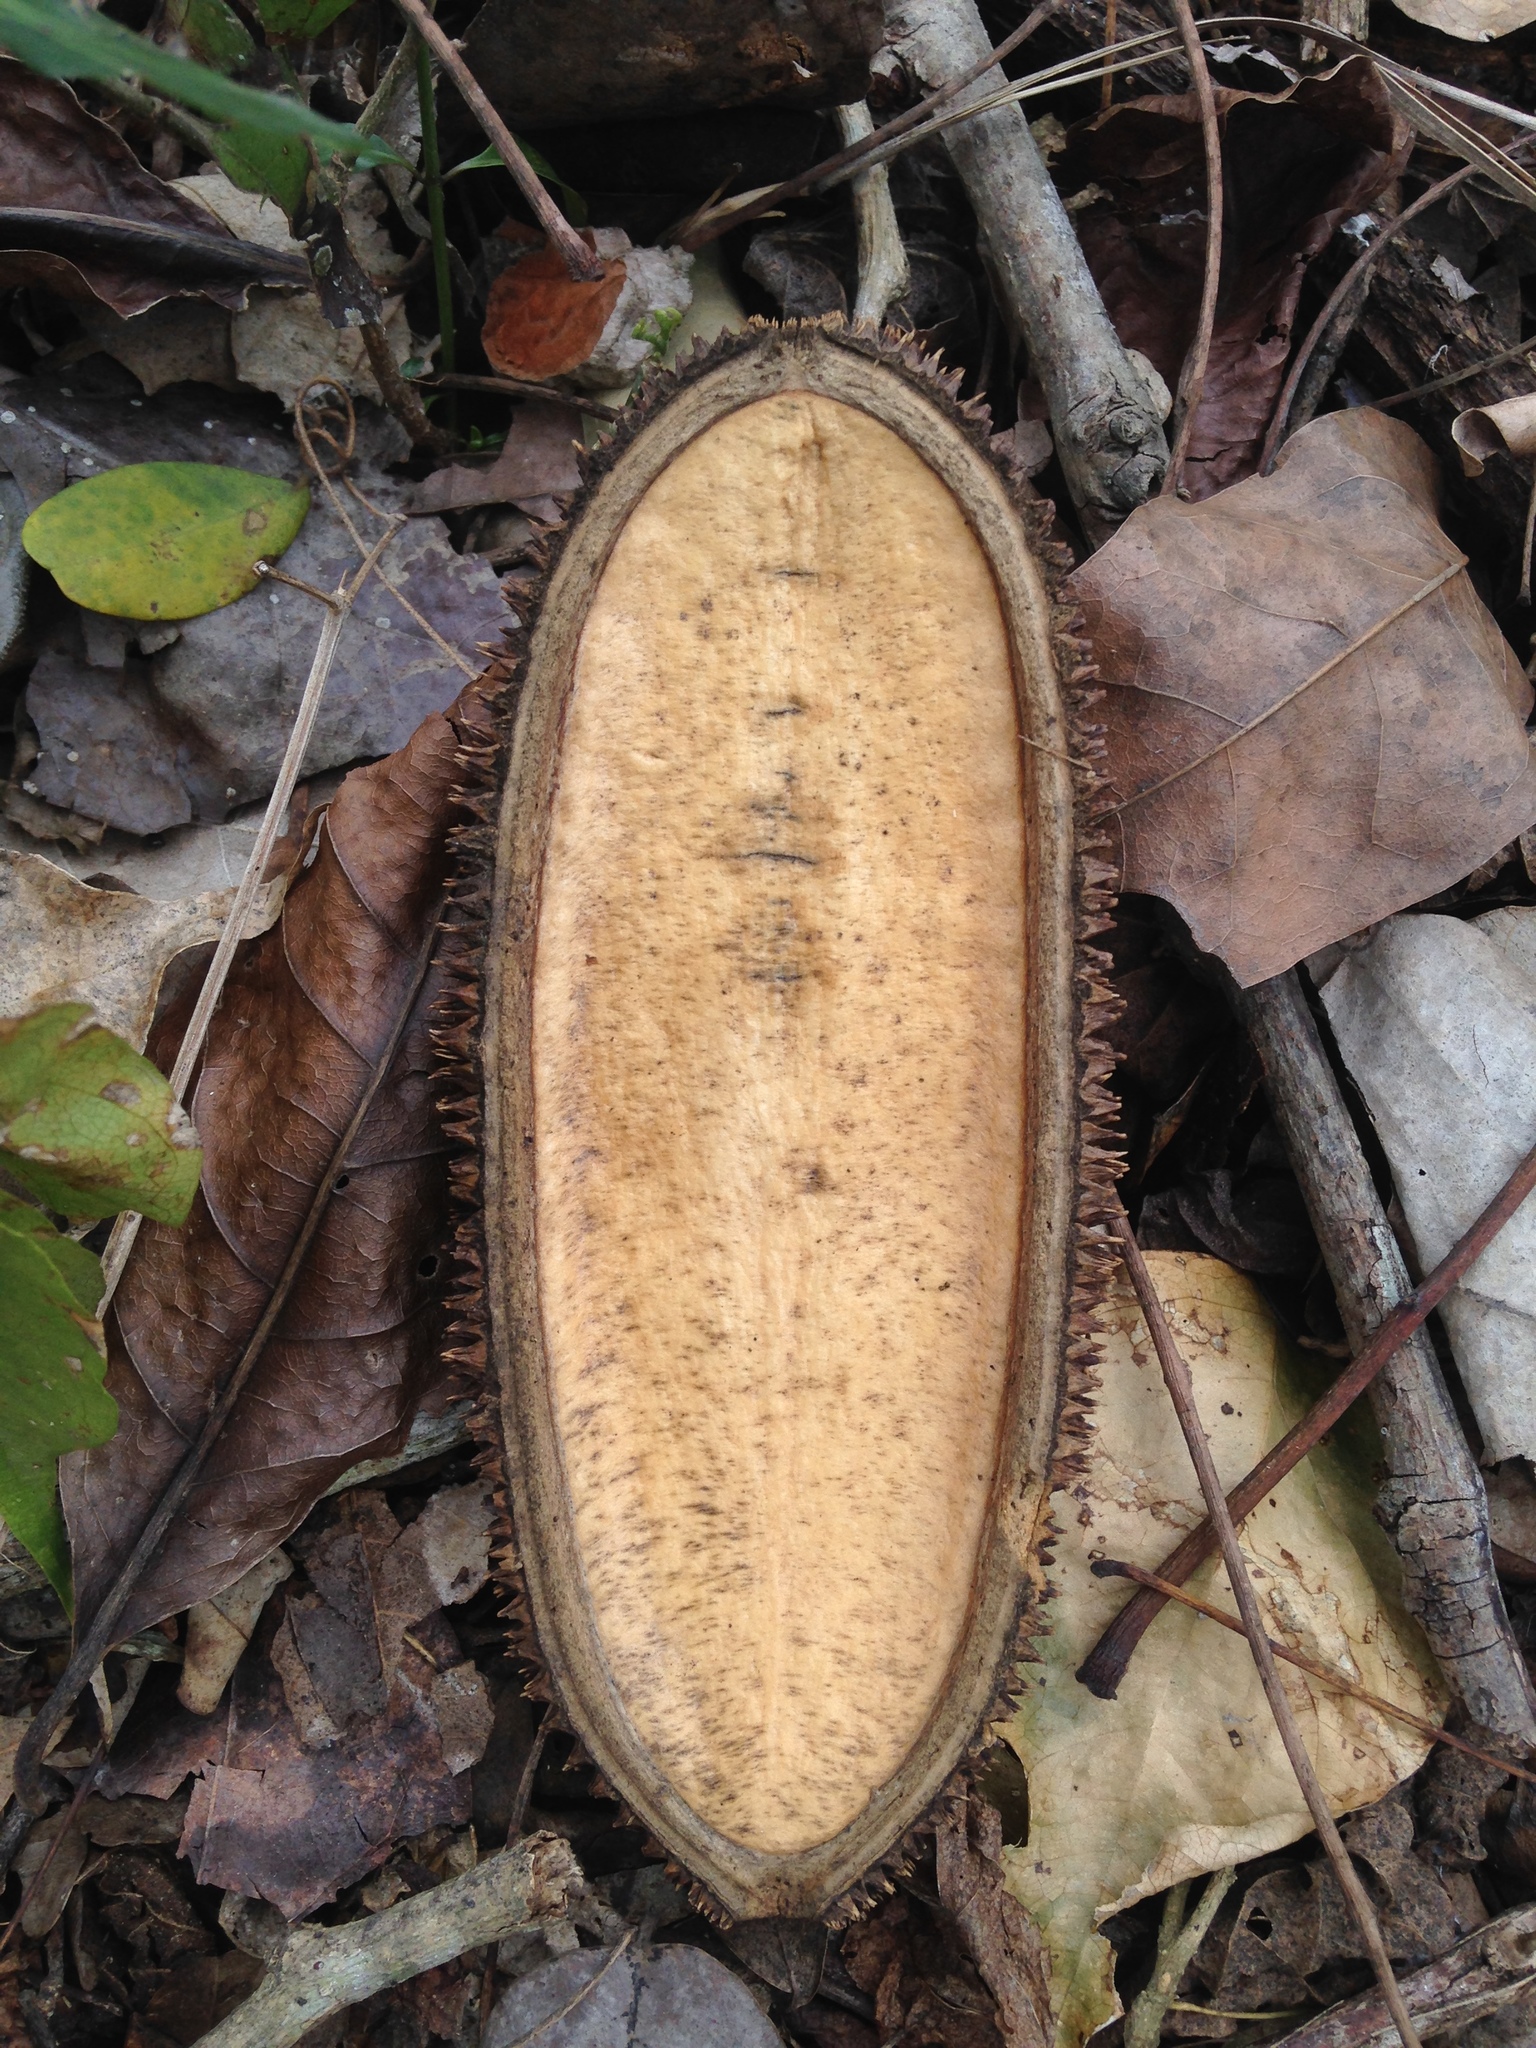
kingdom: Plantae
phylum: Tracheophyta
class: Magnoliopsida
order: Lamiales
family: Bignoniaceae
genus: Amphilophium
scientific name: Amphilophium crucigerum
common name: Monkey comb
